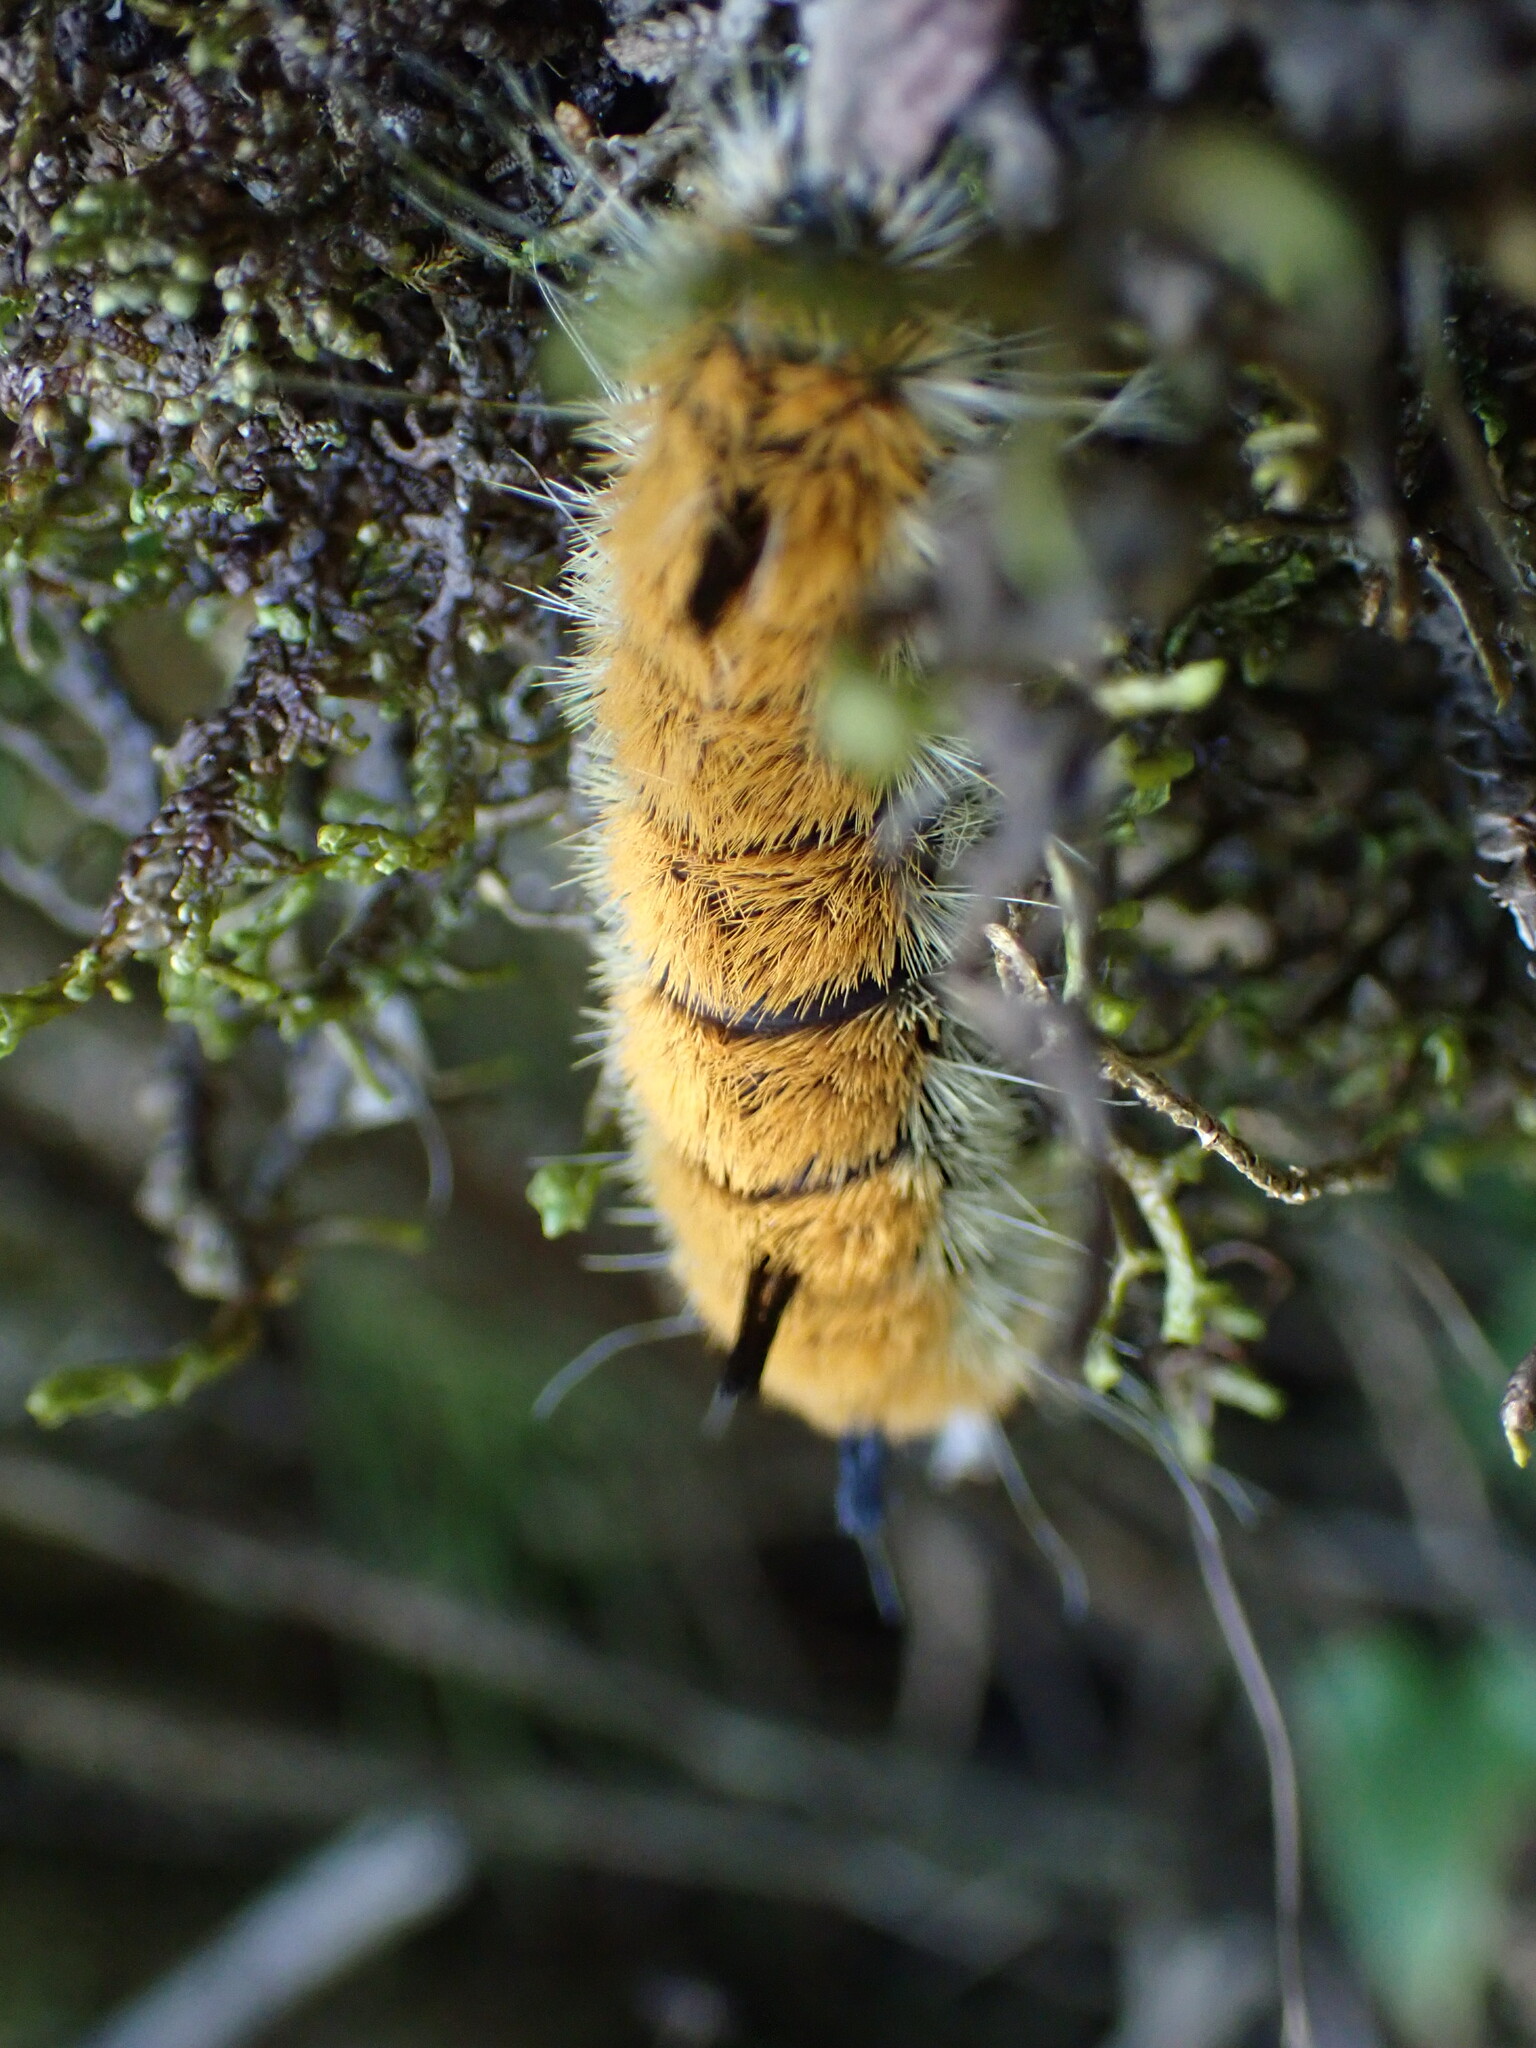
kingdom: Animalia
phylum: Arthropoda
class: Insecta
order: Lepidoptera
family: Noctuidae
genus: Acronicta
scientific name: Acronicta insita
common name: Large gray dagger
